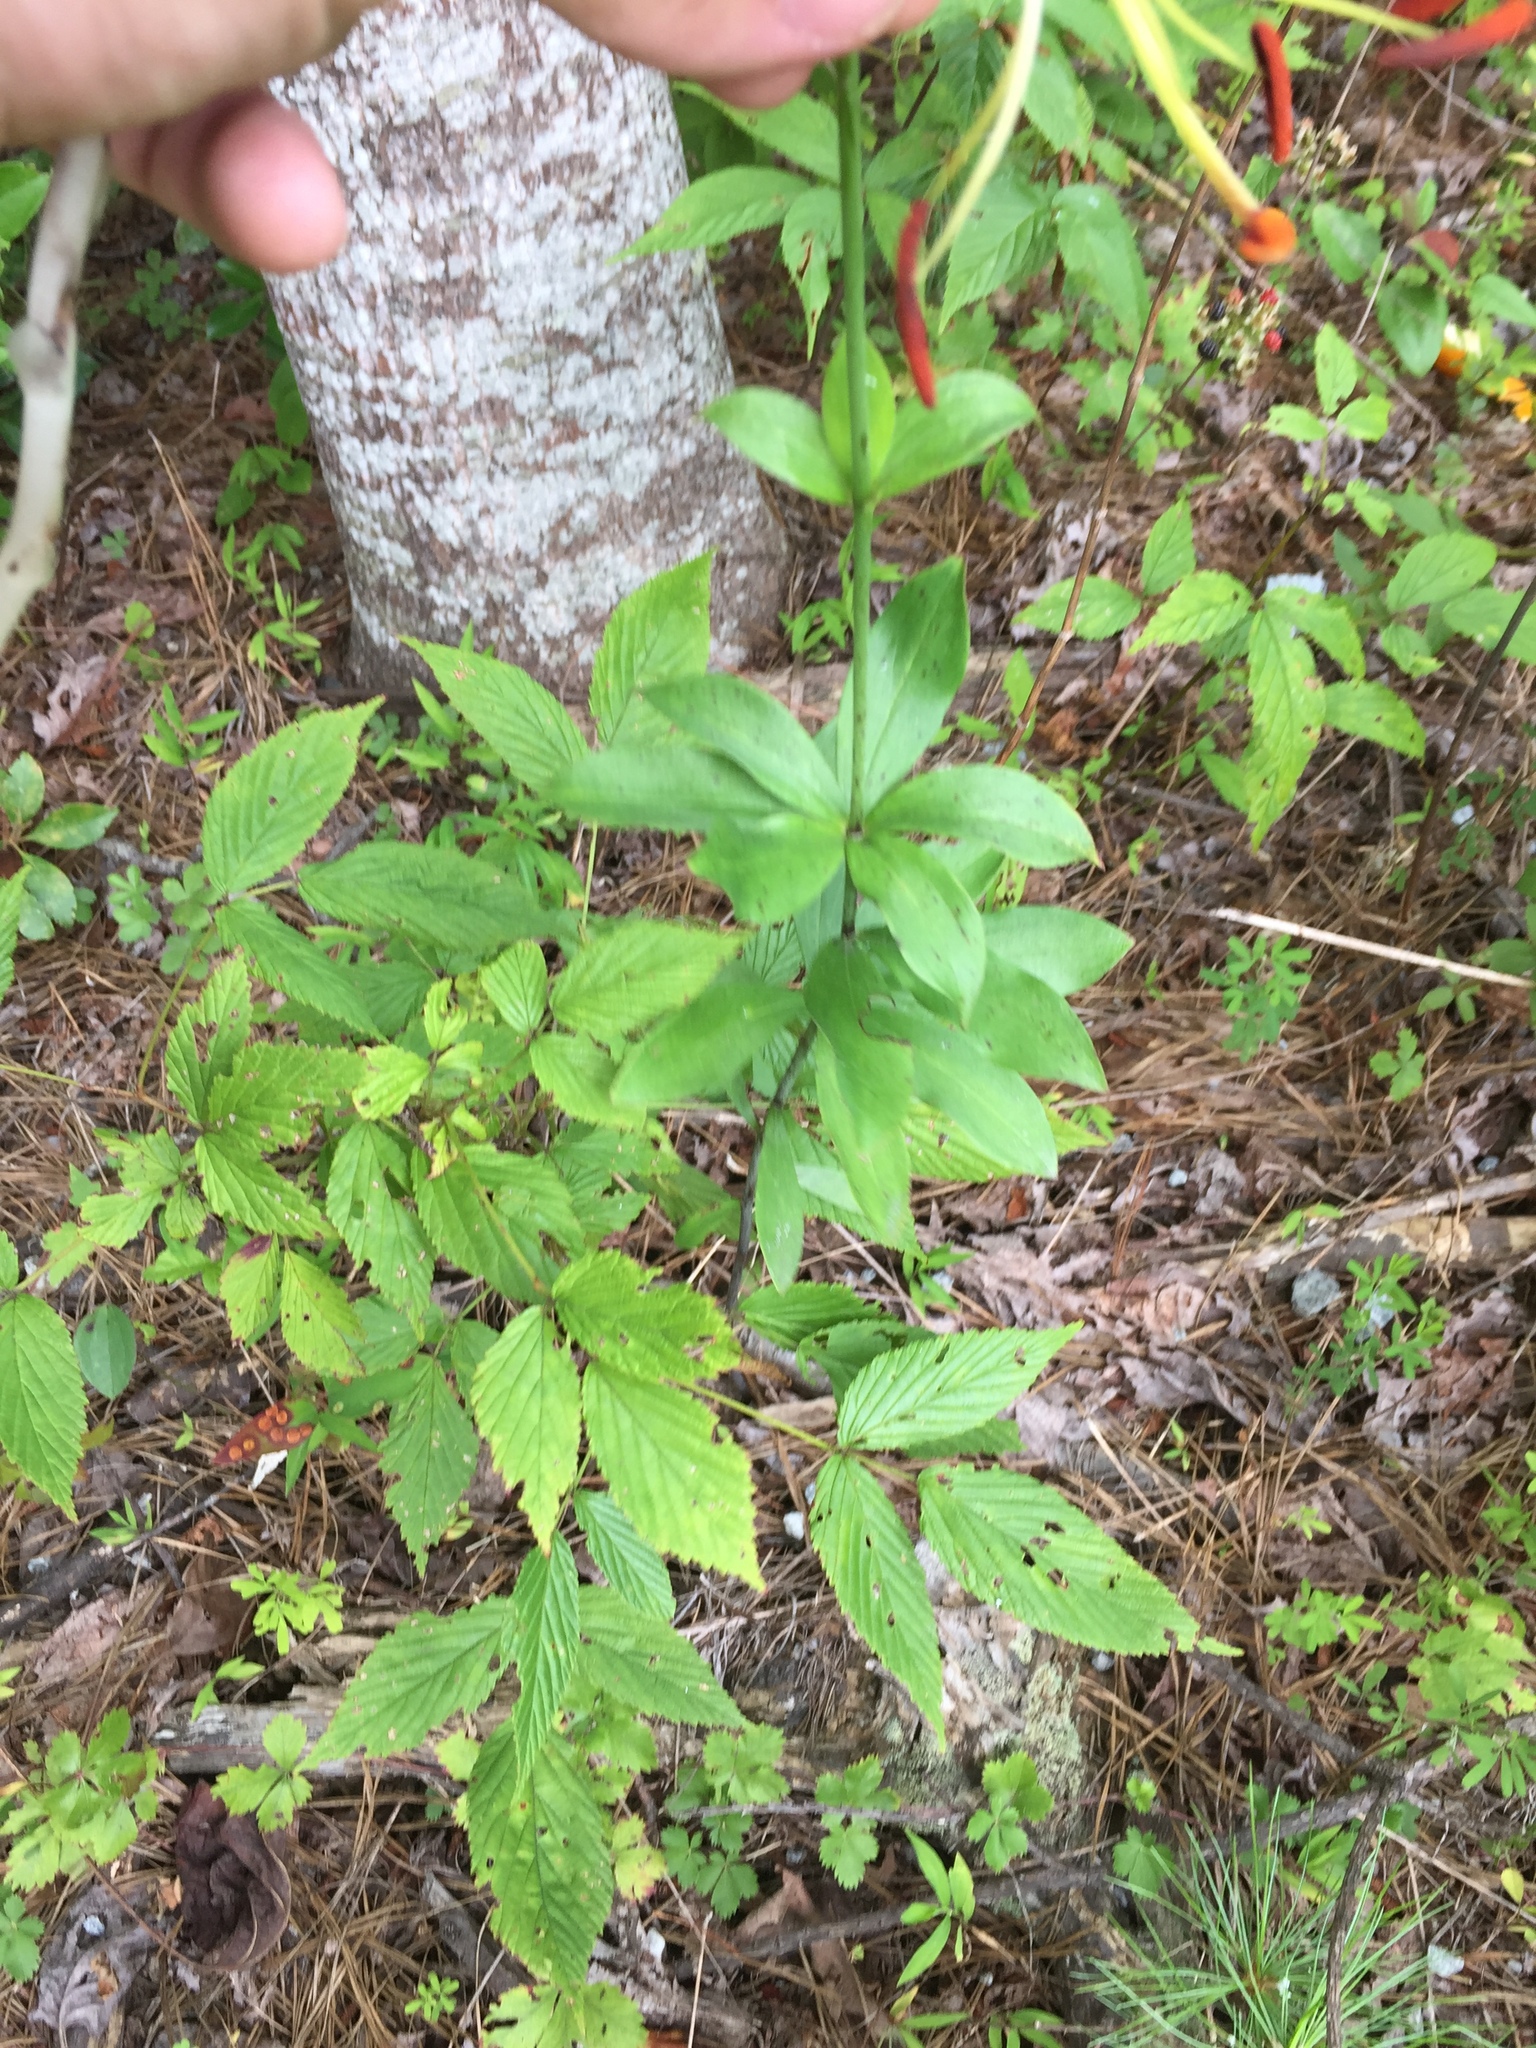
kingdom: Plantae
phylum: Tracheophyta
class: Liliopsida
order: Liliales
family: Liliaceae
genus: Lilium
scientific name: Lilium michauxii
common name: Carolina lily
